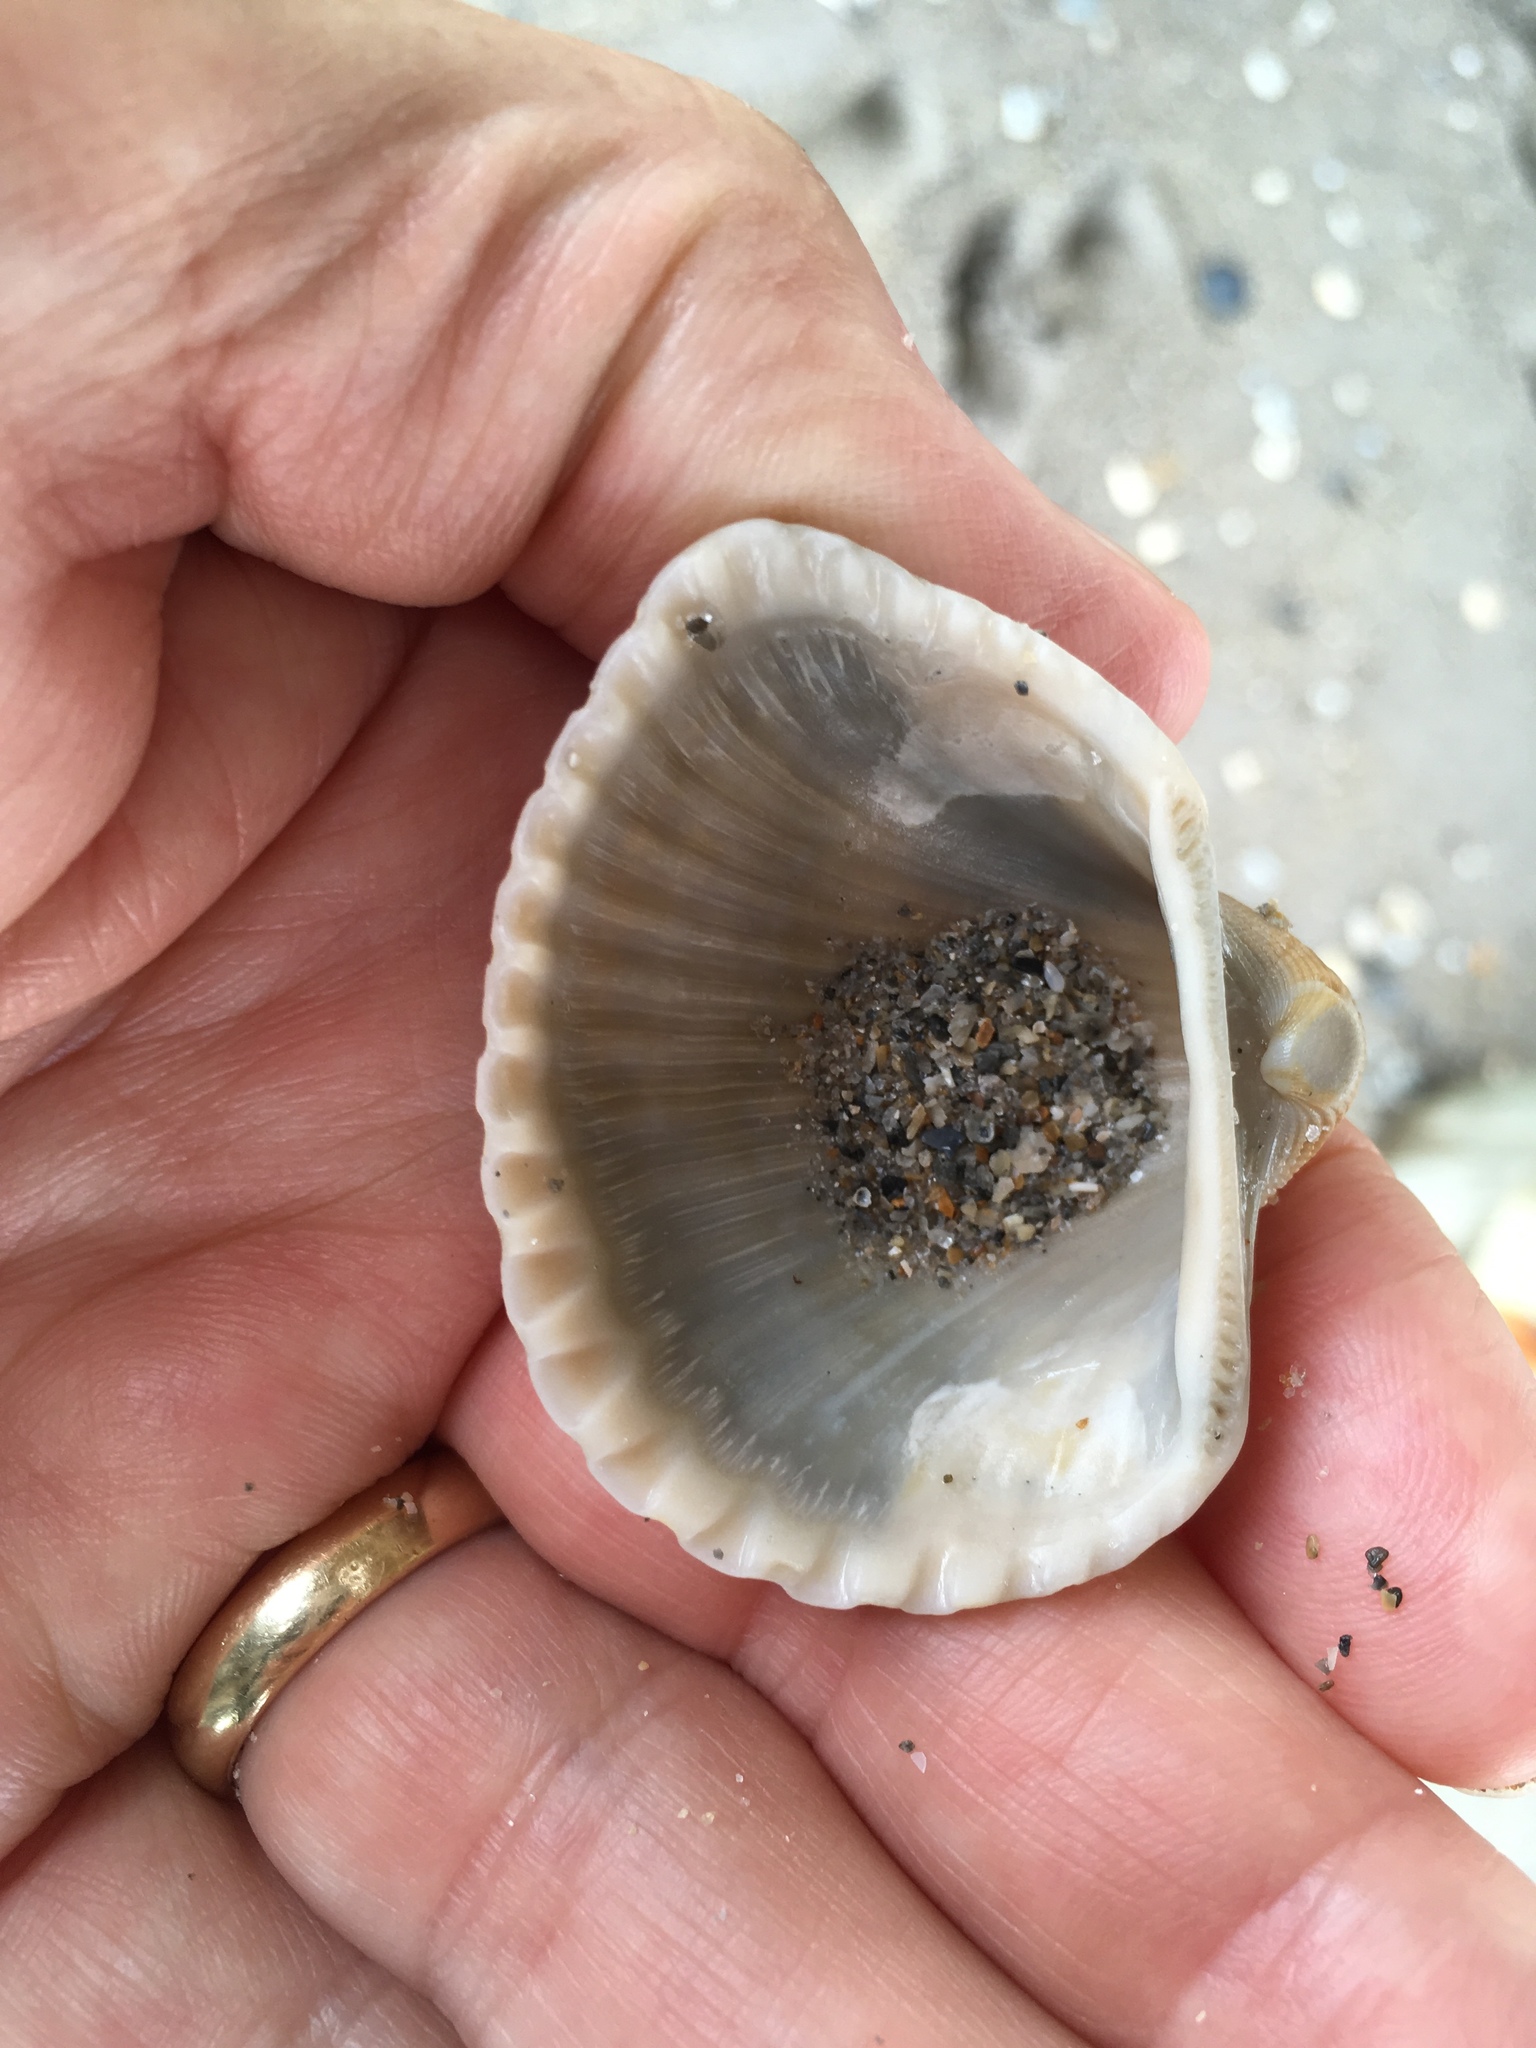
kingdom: Animalia
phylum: Mollusca
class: Bivalvia
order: Arcida
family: Arcidae
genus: Anadara
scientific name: Anadara brasiliana
